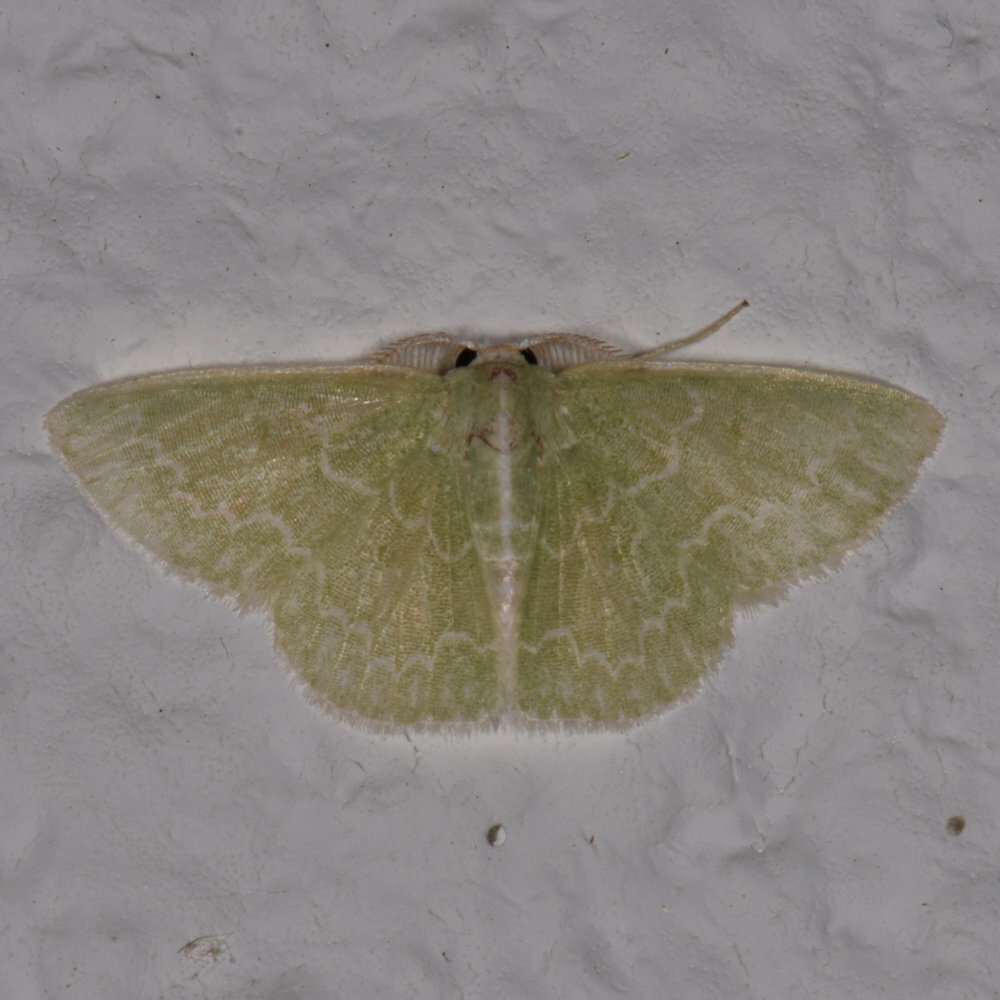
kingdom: Animalia
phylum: Arthropoda
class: Insecta
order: Lepidoptera
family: Geometridae
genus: Synchlora
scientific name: Synchlora frondaria
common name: Southern emerald
